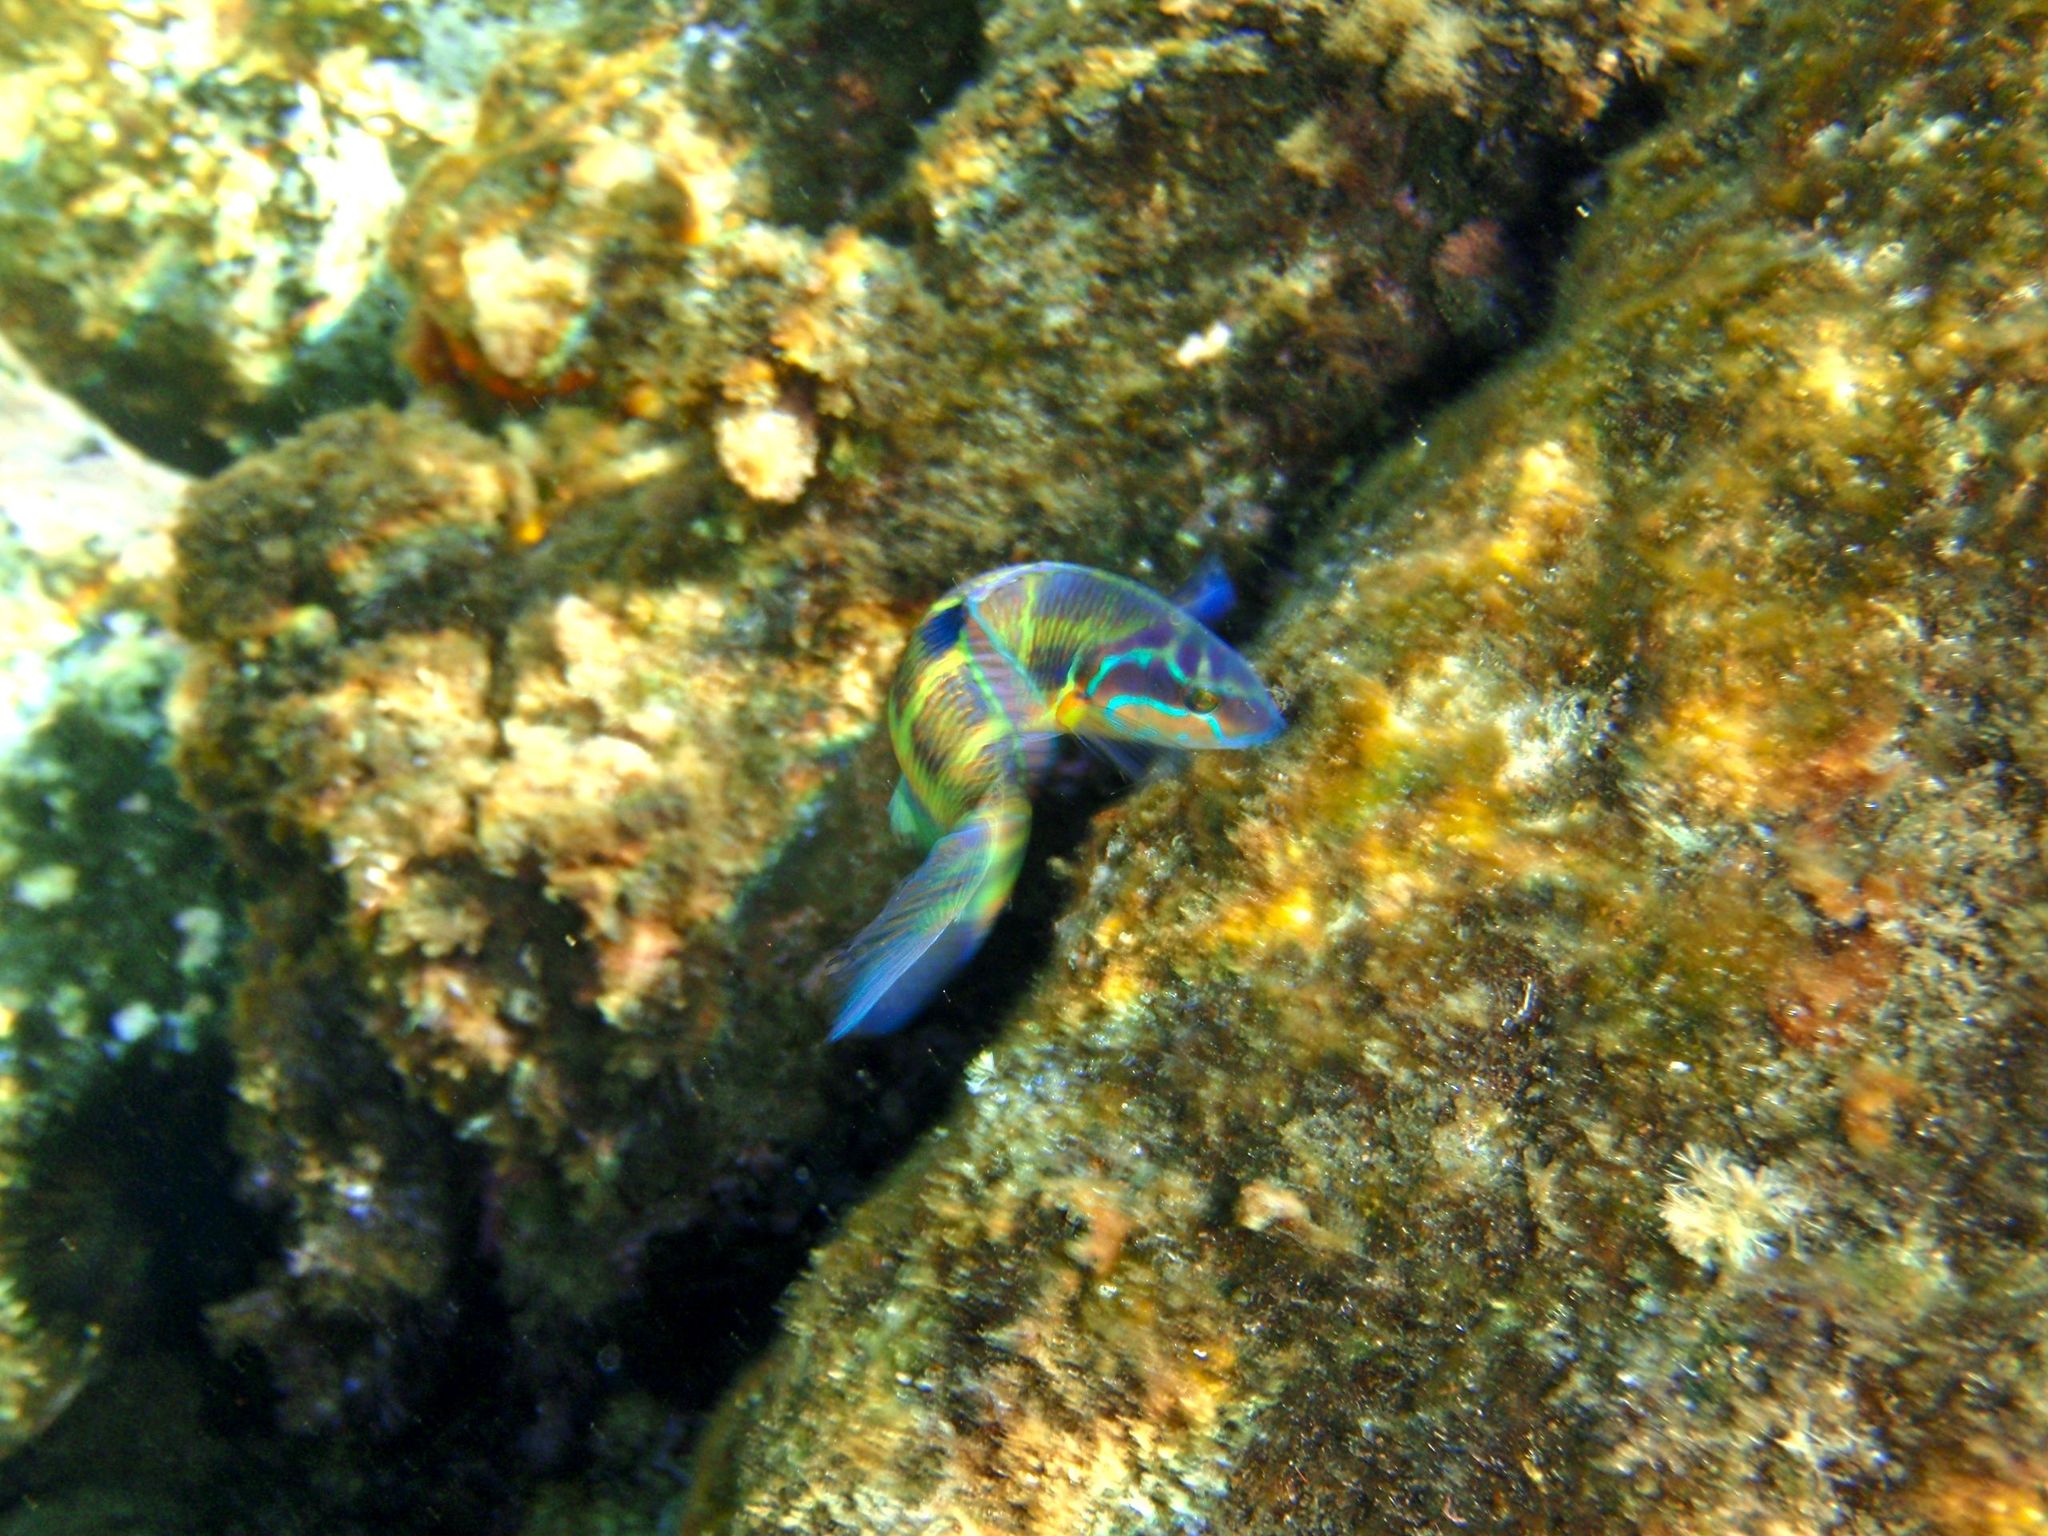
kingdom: Animalia
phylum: Chordata
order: Perciformes
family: Labridae
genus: Thalassoma
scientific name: Thalassoma pavo
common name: Ornate wrasse
